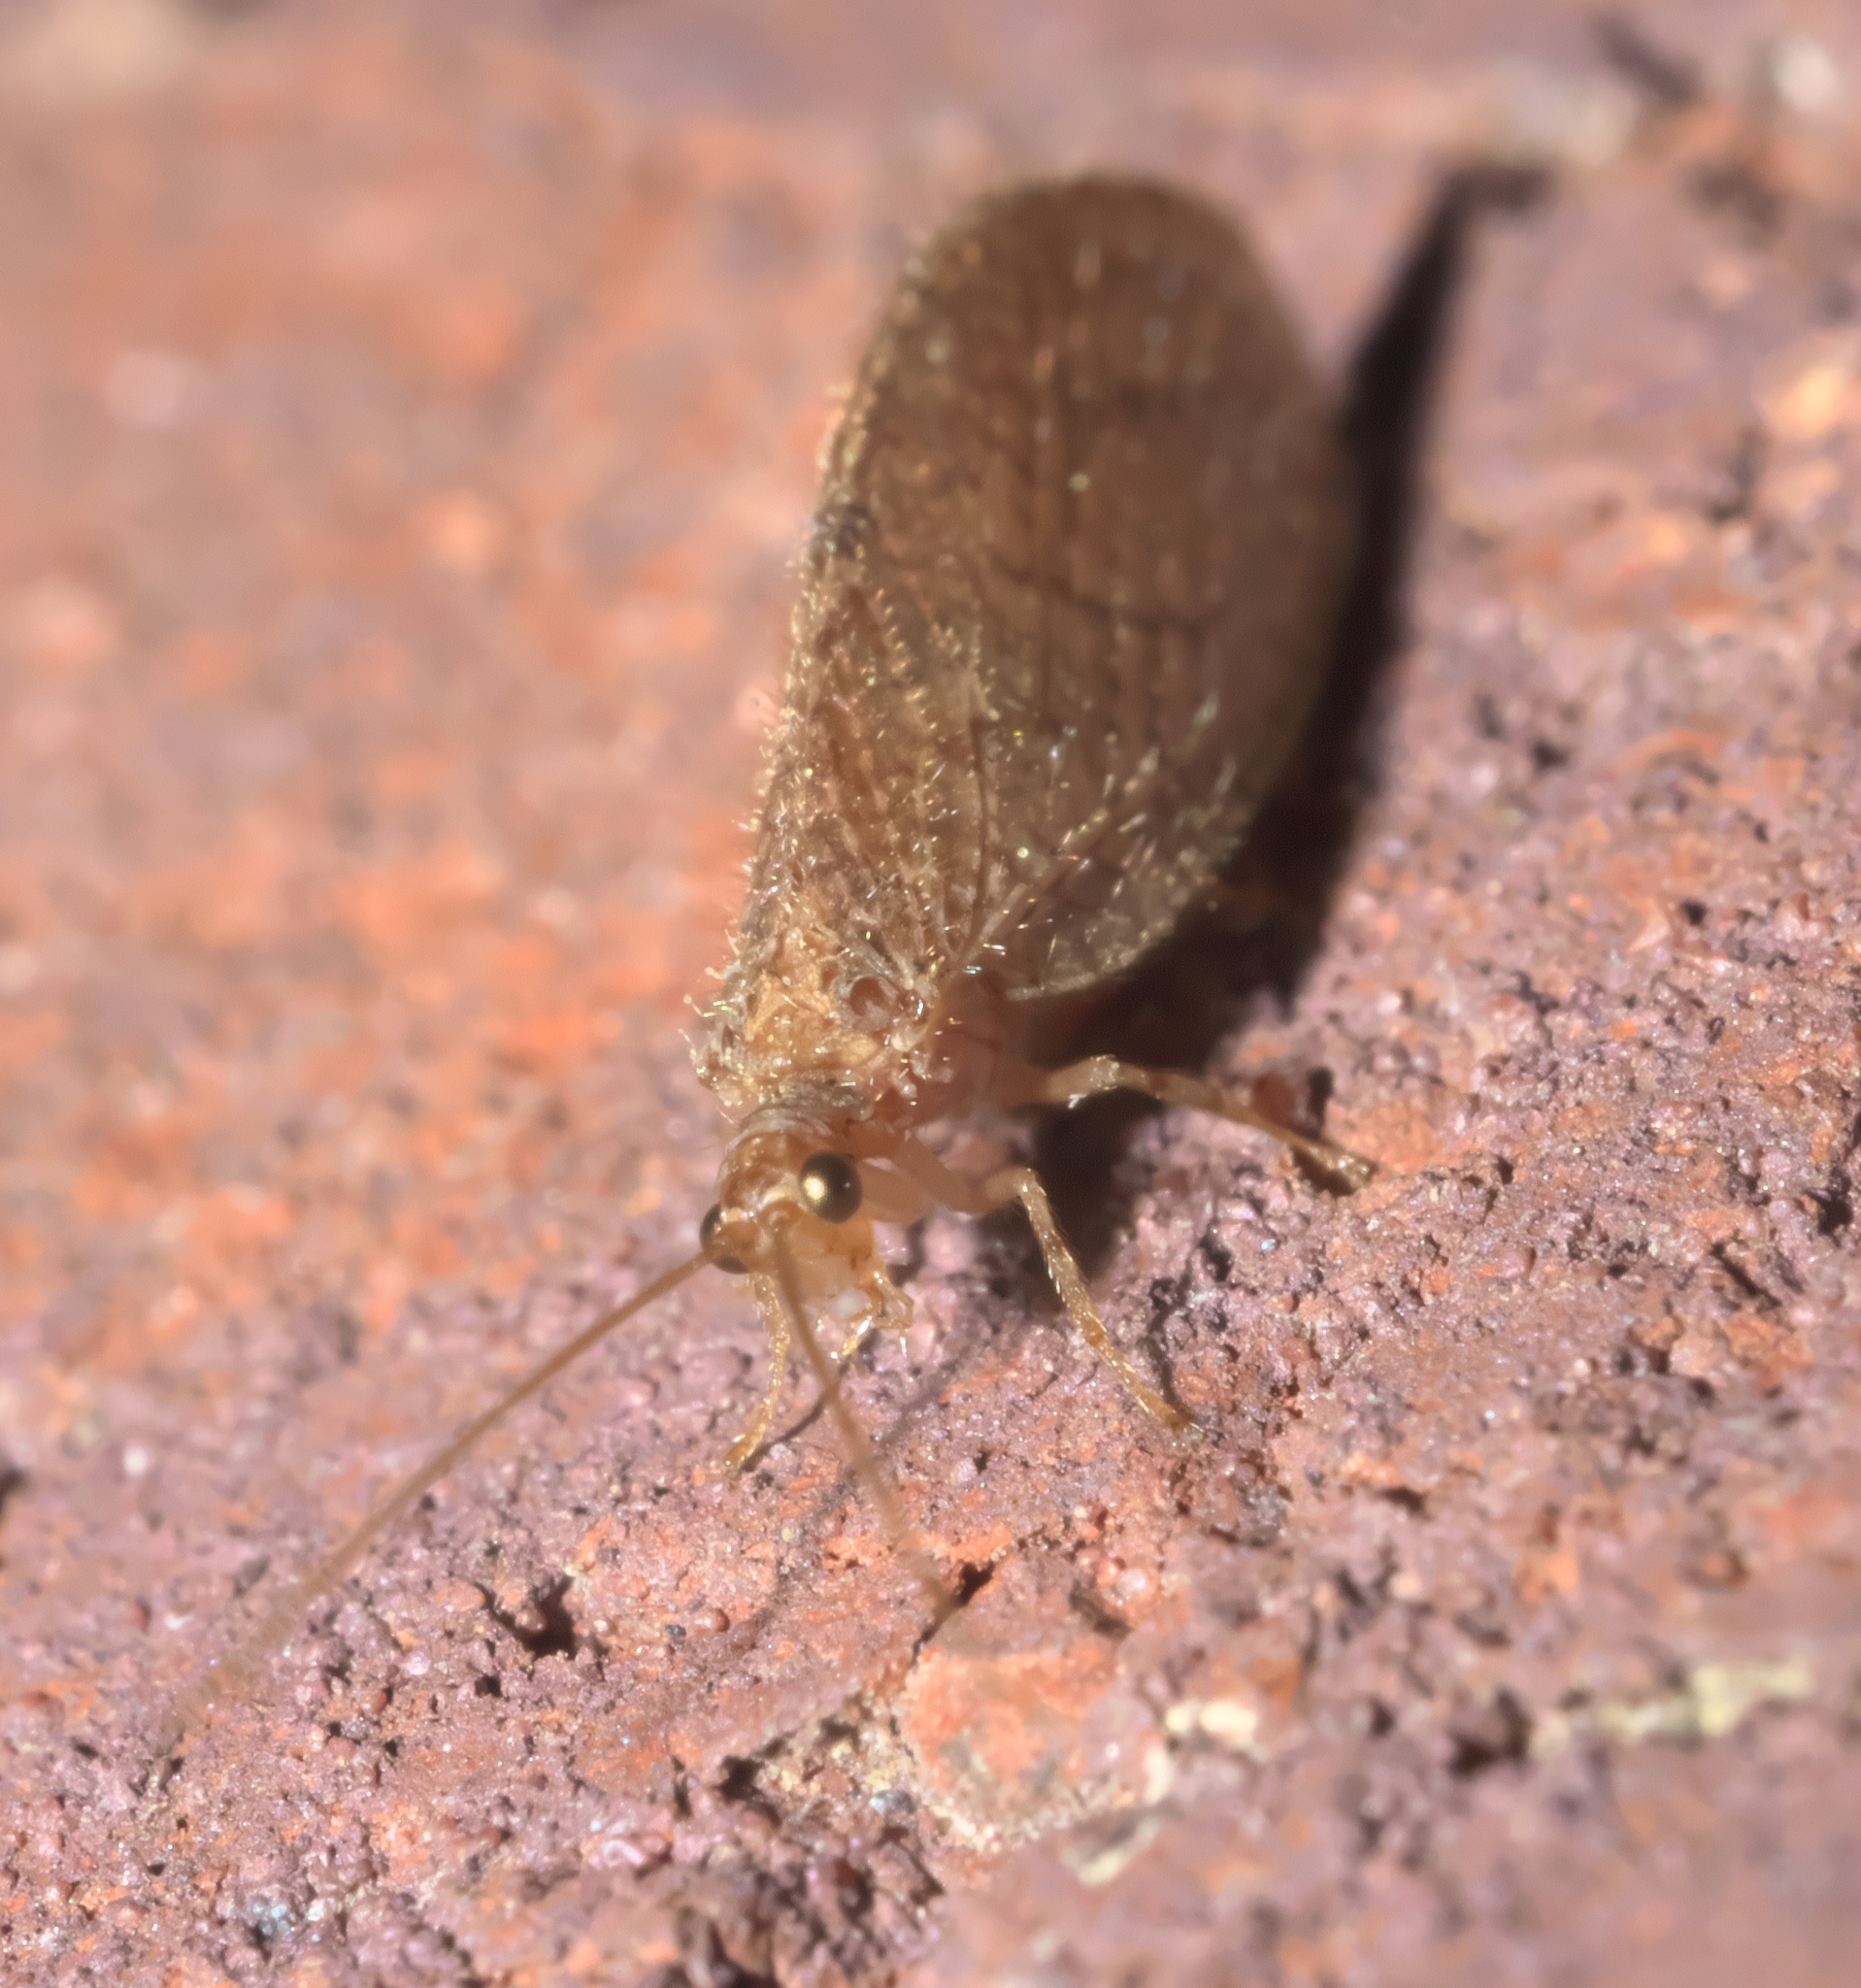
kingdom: Animalia
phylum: Arthropoda
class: Insecta
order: Neuroptera
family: Hemerobiidae
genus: Micromus
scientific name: Micromus posticus
